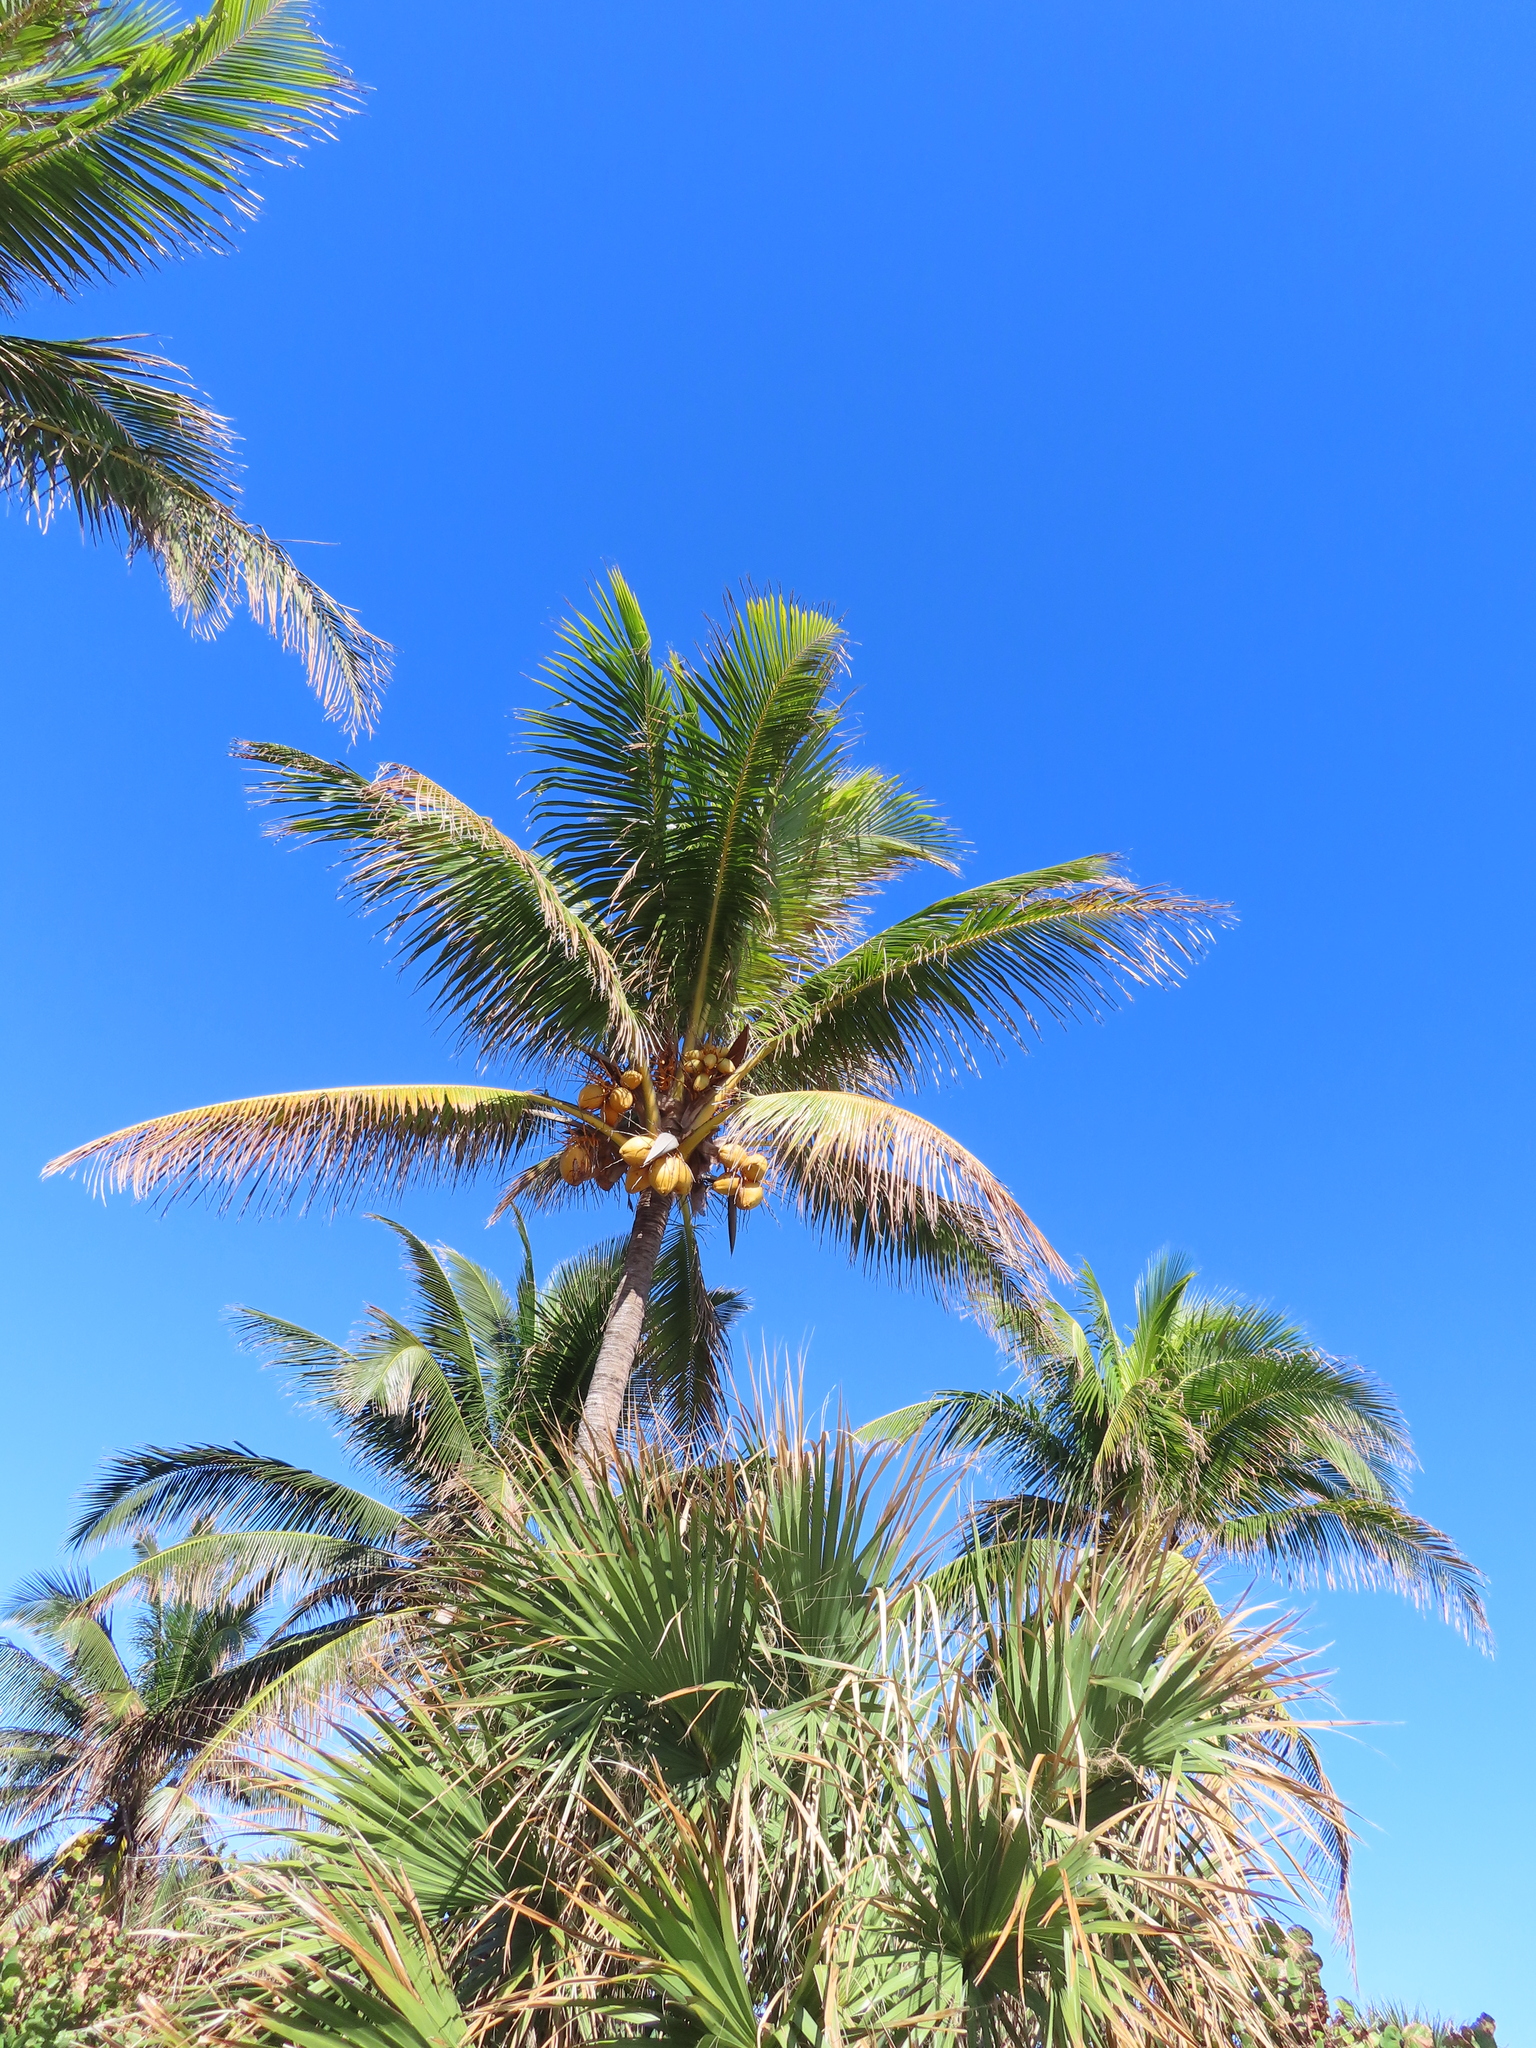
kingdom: Plantae
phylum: Tracheophyta
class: Liliopsida
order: Arecales
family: Arecaceae
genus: Cocos
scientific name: Cocos nucifera
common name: Coconut palm
